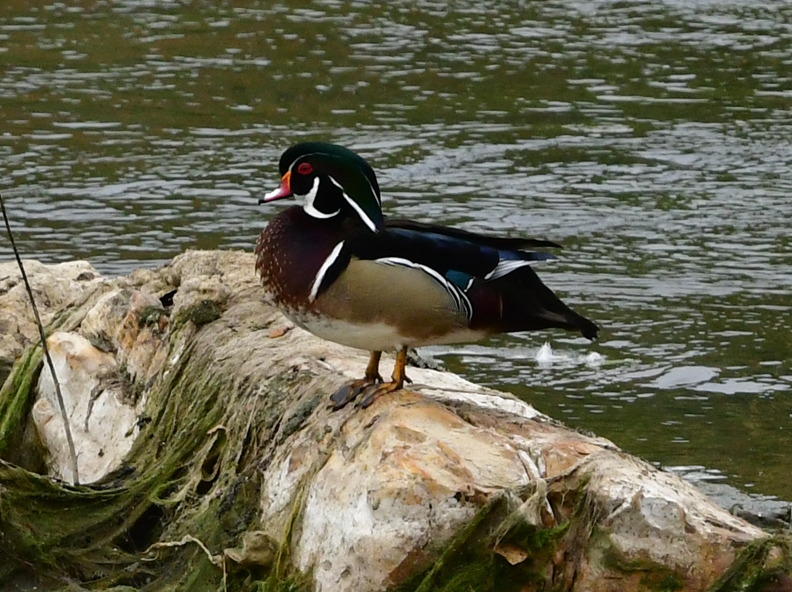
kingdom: Animalia
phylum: Chordata
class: Aves
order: Anseriformes
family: Anatidae
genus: Aix
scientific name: Aix sponsa
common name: Wood duck
